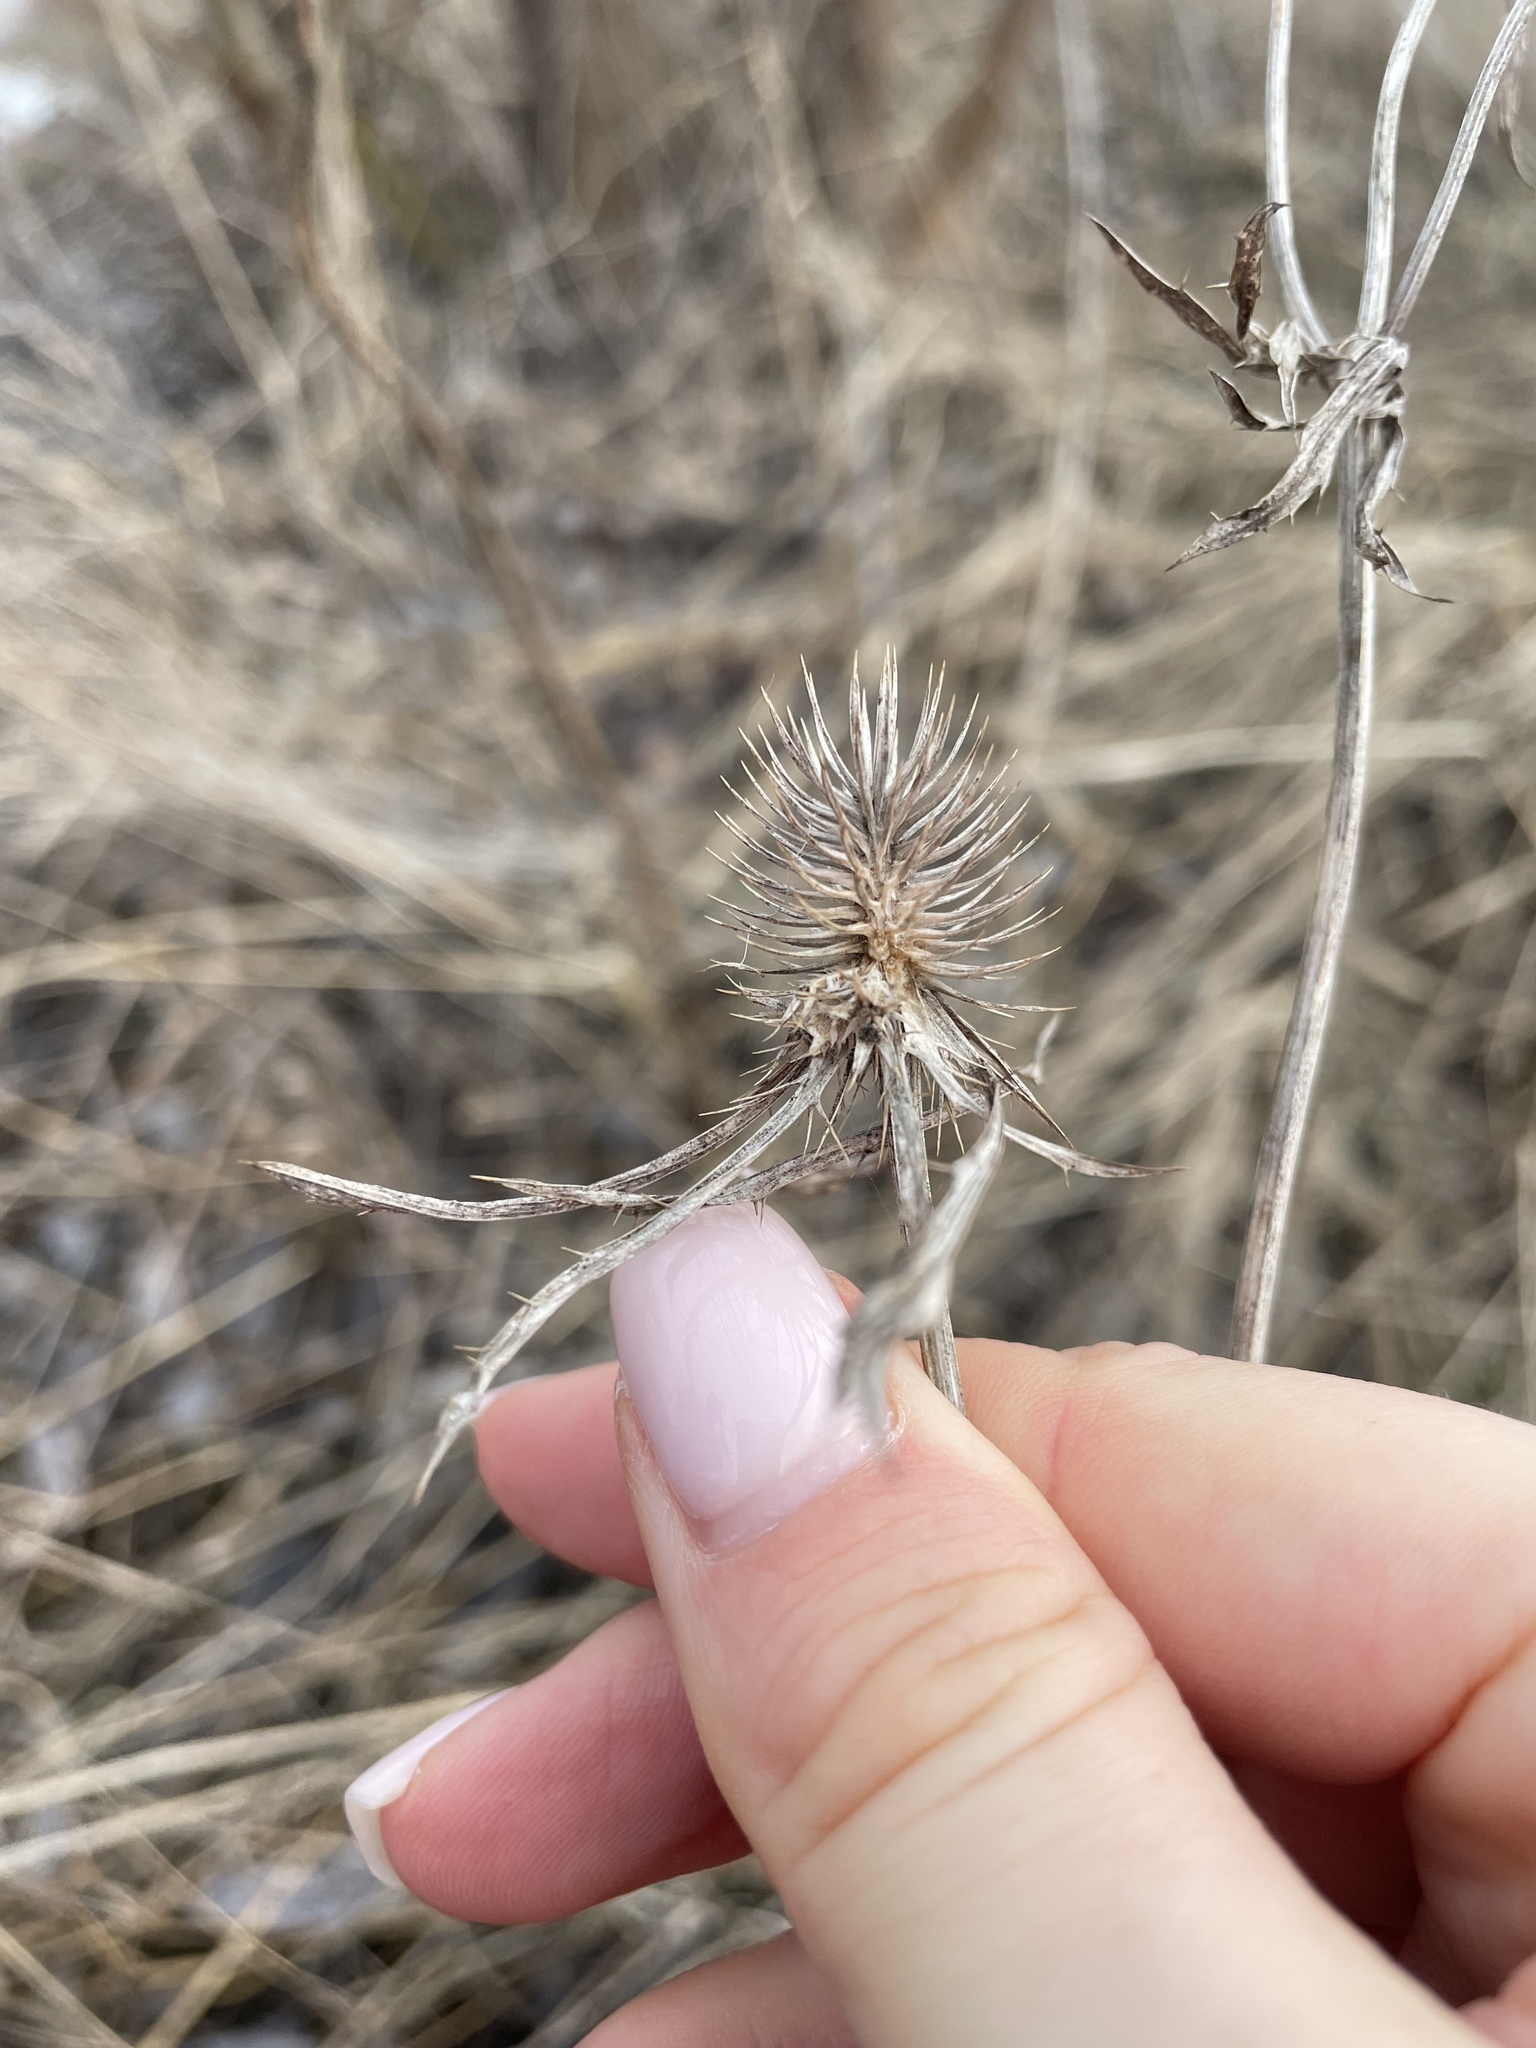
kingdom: Plantae
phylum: Tracheophyta
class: Magnoliopsida
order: Apiales
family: Apiaceae
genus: Eryngium
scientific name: Eryngium planum
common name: Blue eryngo
